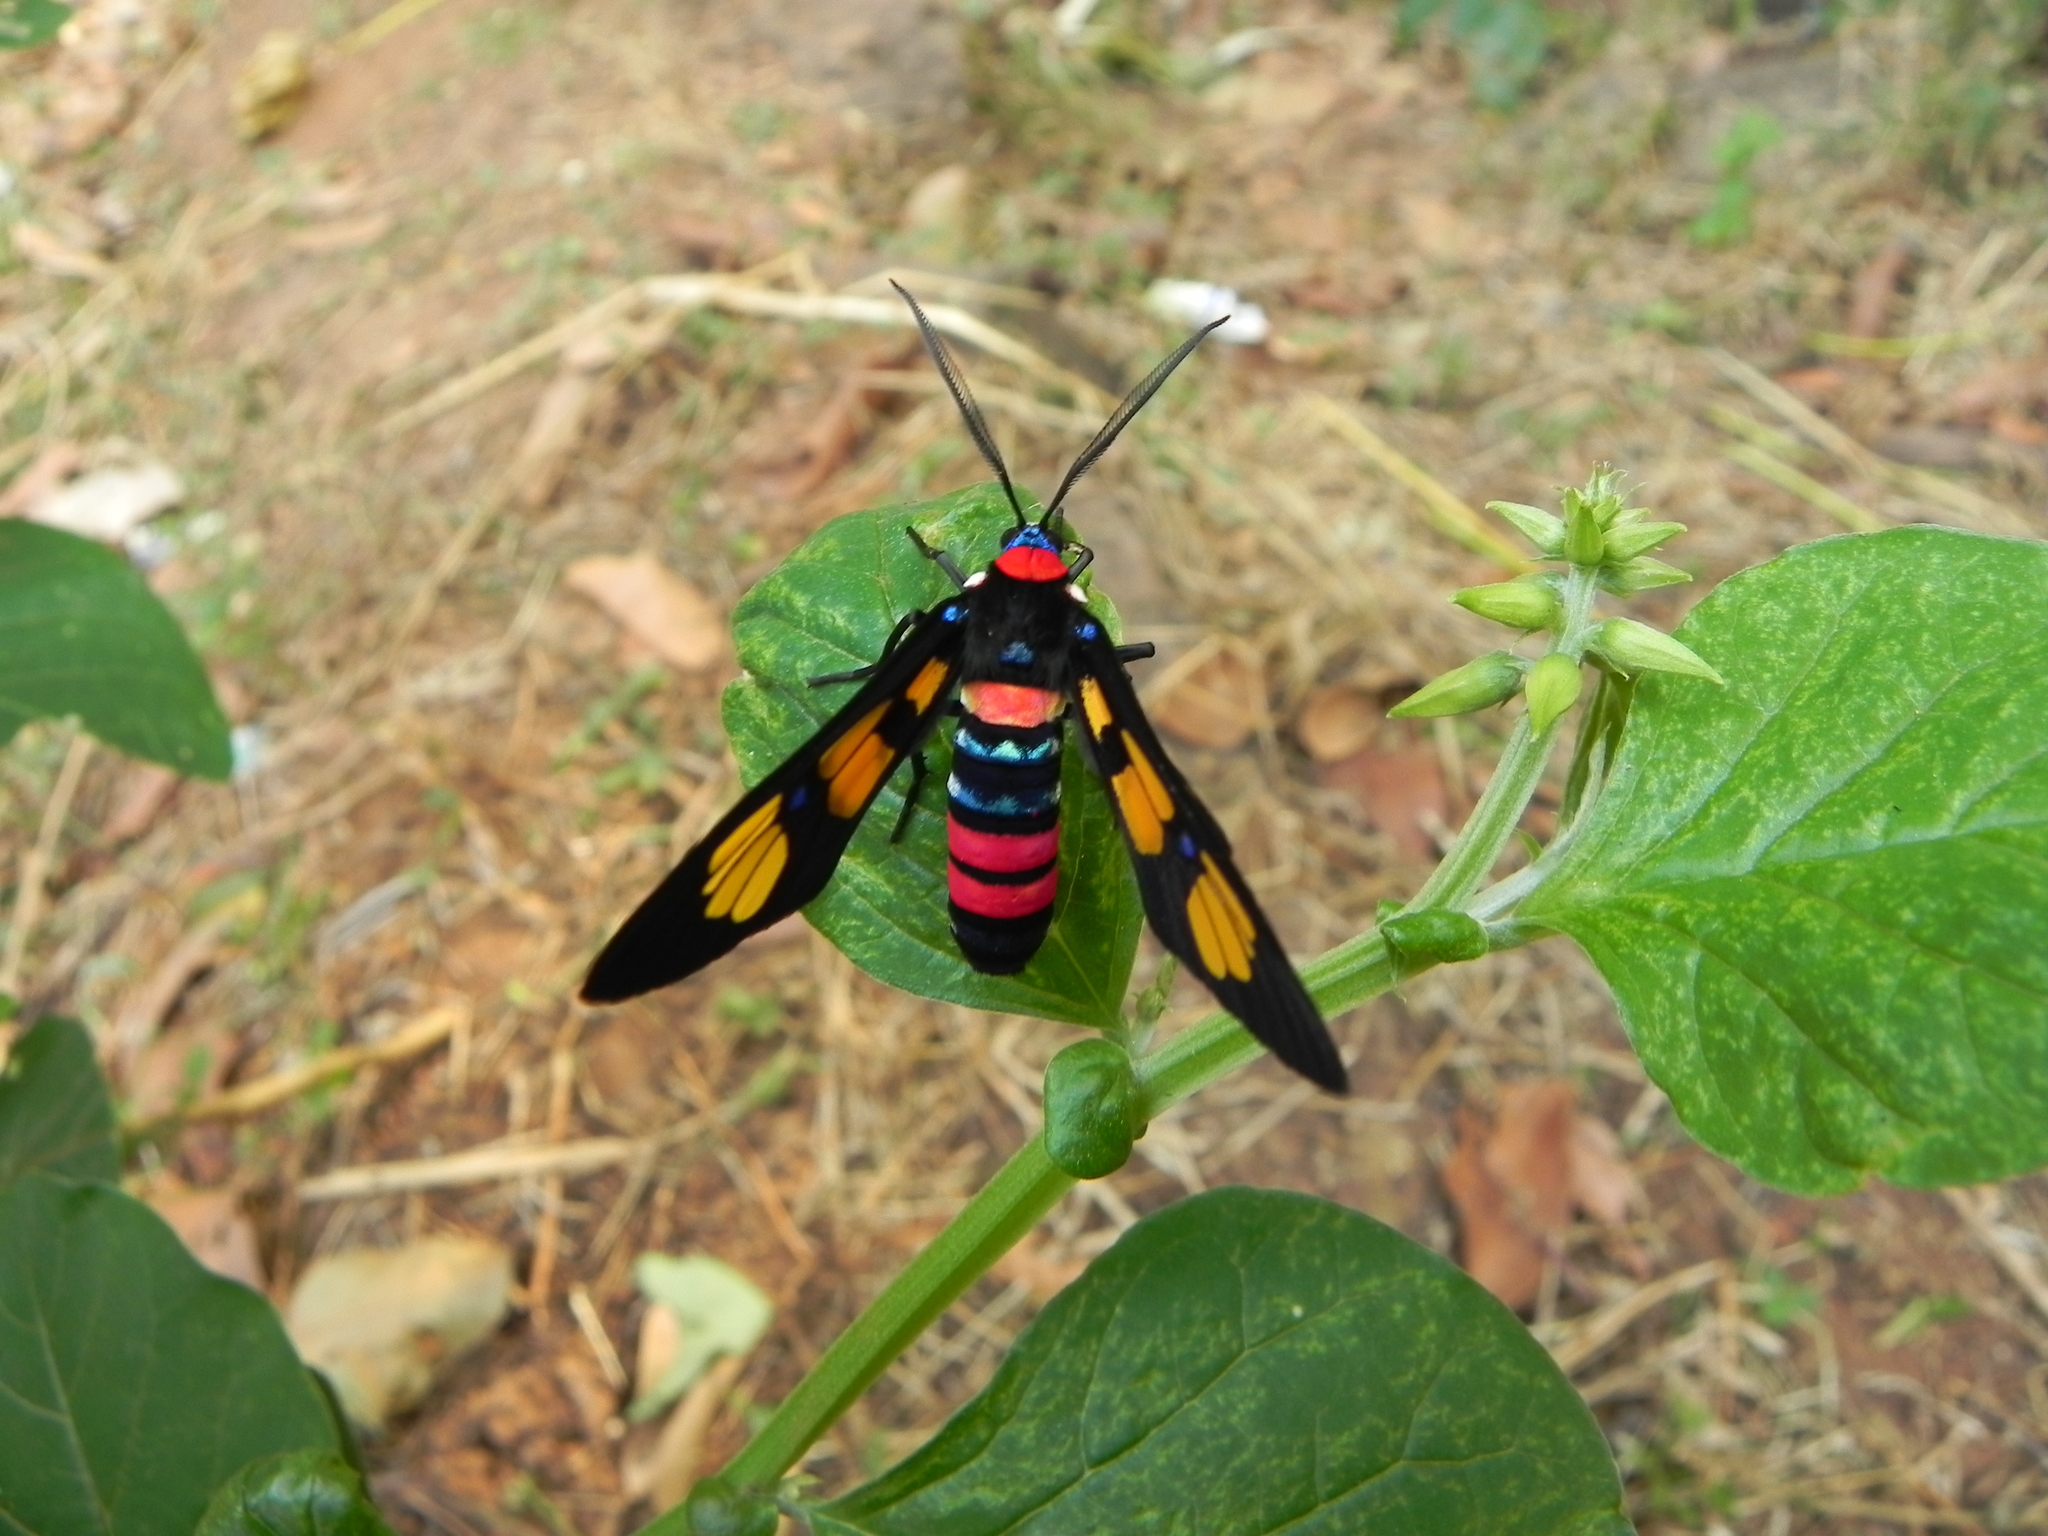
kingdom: Animalia
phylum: Arthropoda
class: Insecta
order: Lepidoptera
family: Erebidae
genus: Euchromia
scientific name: Euchromia polymena
